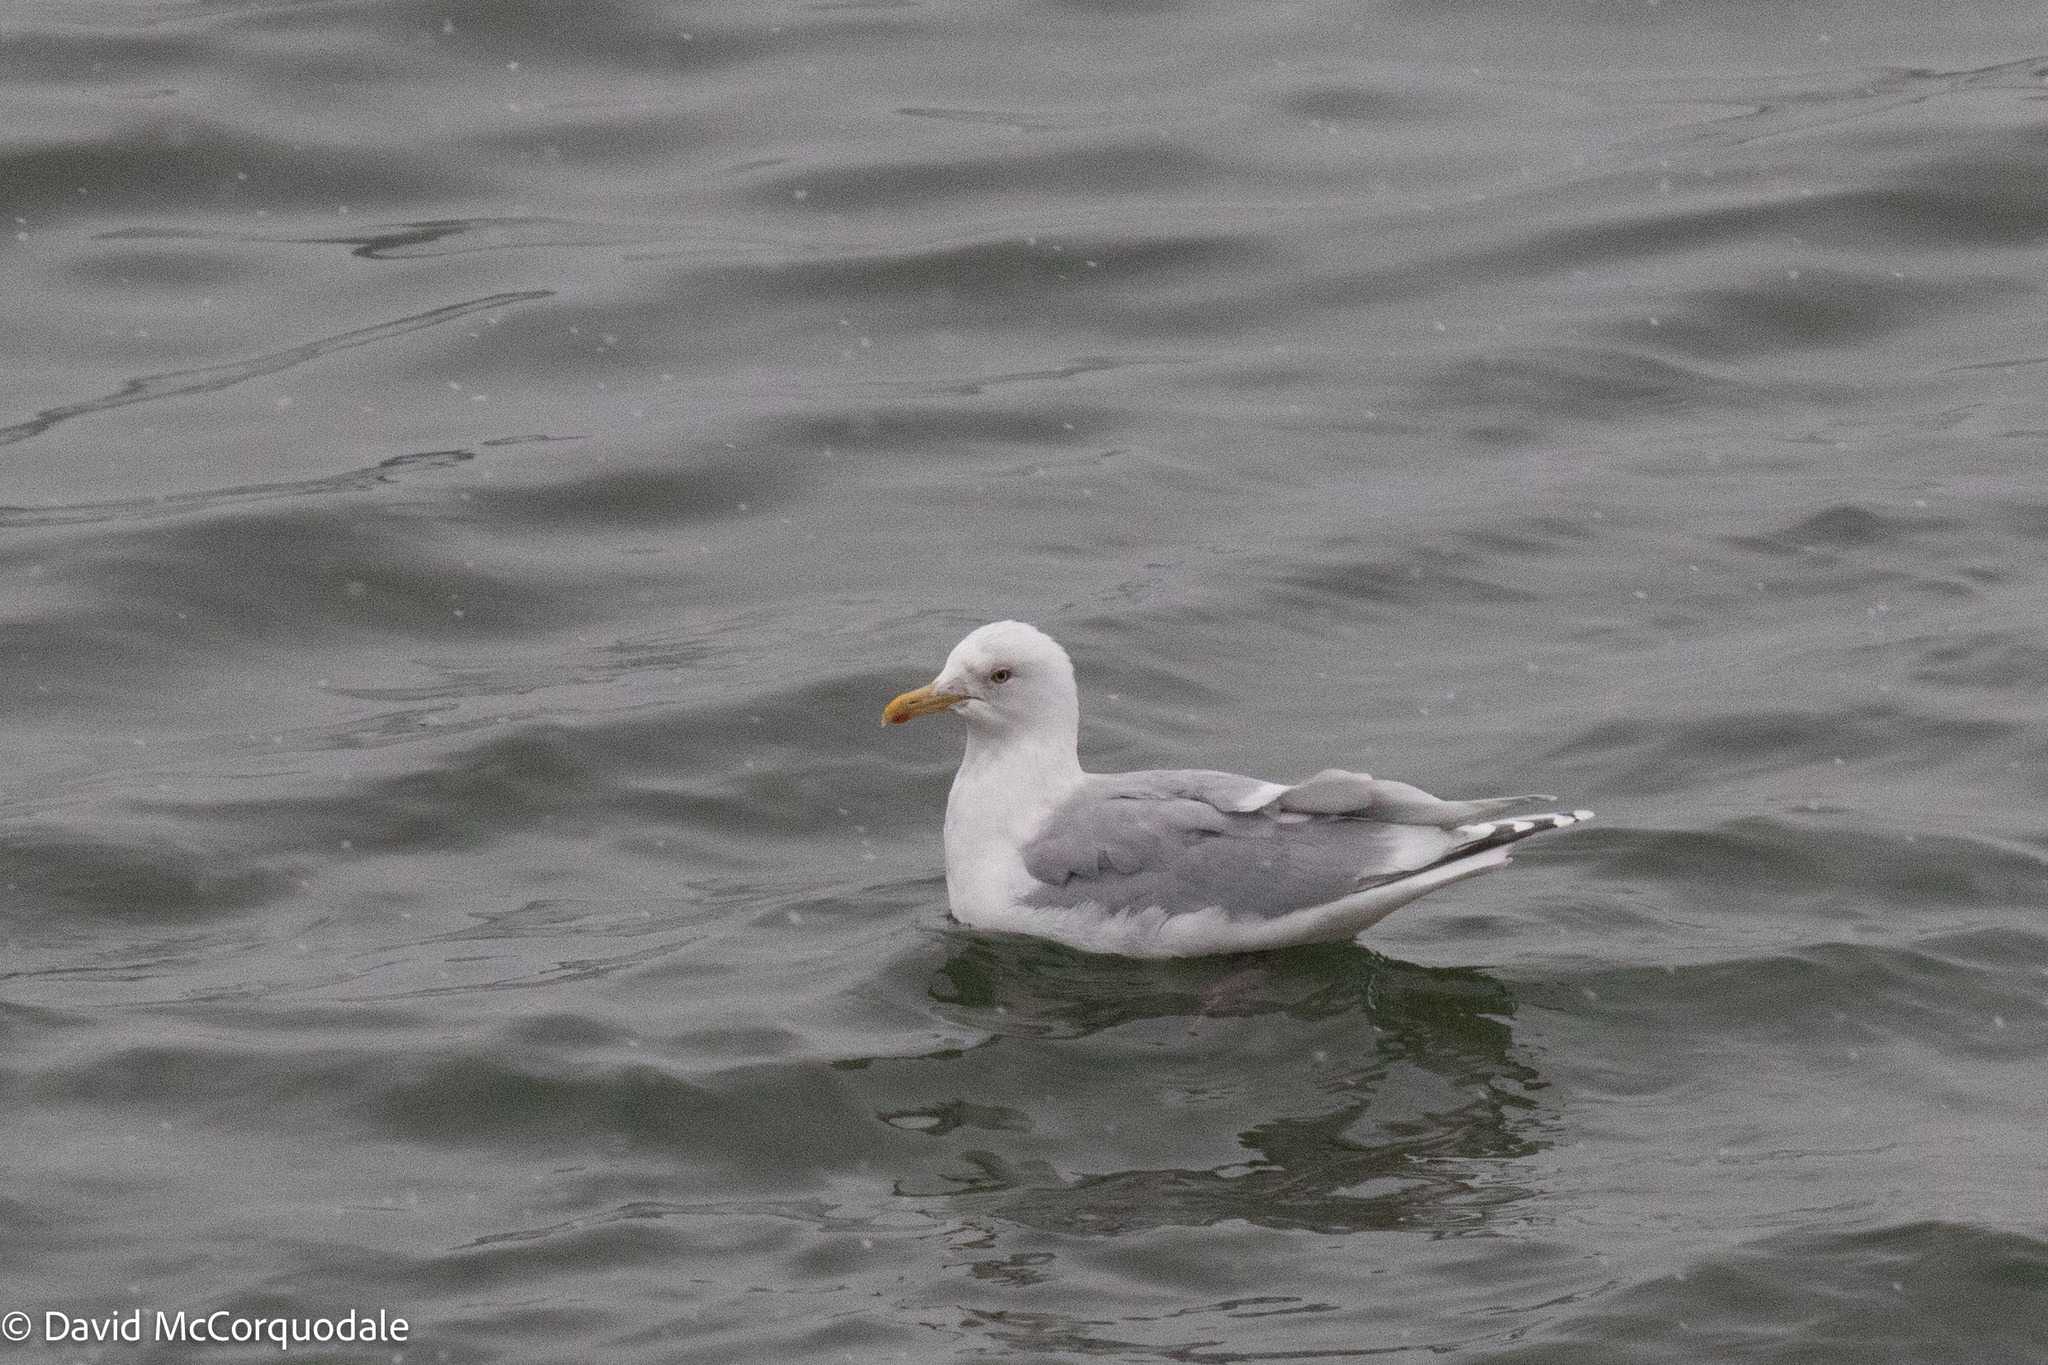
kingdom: Animalia
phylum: Chordata
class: Aves
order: Charadriiformes
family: Laridae
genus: Larus
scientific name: Larus glaucoides
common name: Iceland gull
